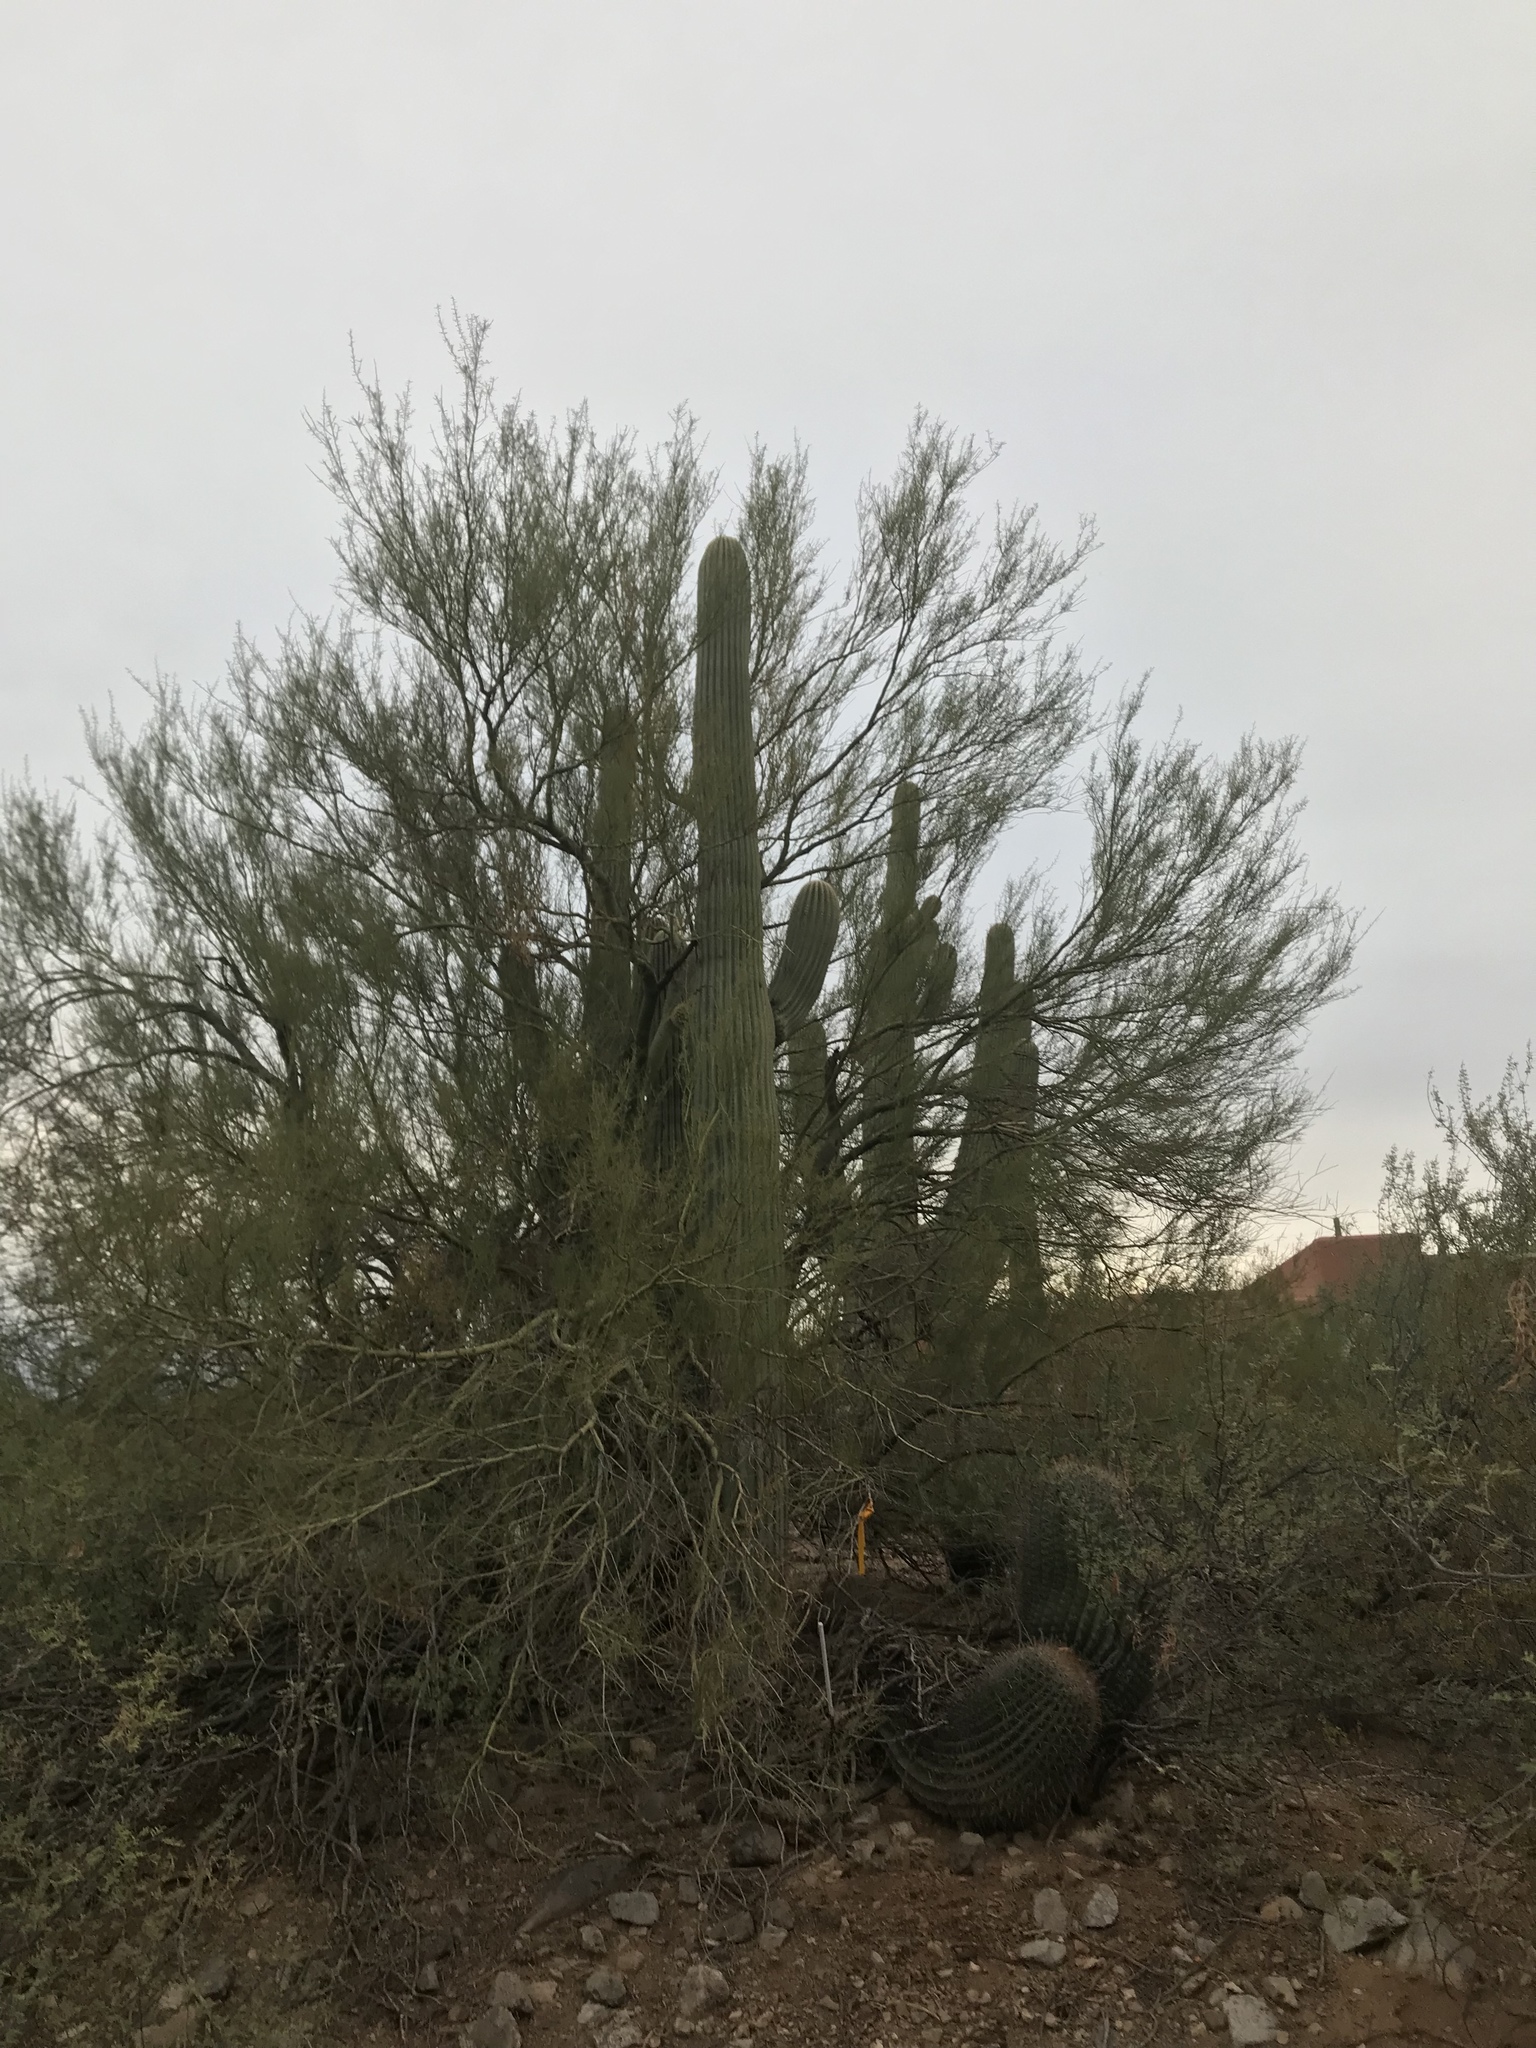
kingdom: Plantae
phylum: Tracheophyta
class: Magnoliopsida
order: Caryophyllales
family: Cactaceae
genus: Carnegiea
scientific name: Carnegiea gigantea
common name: Saguaro
